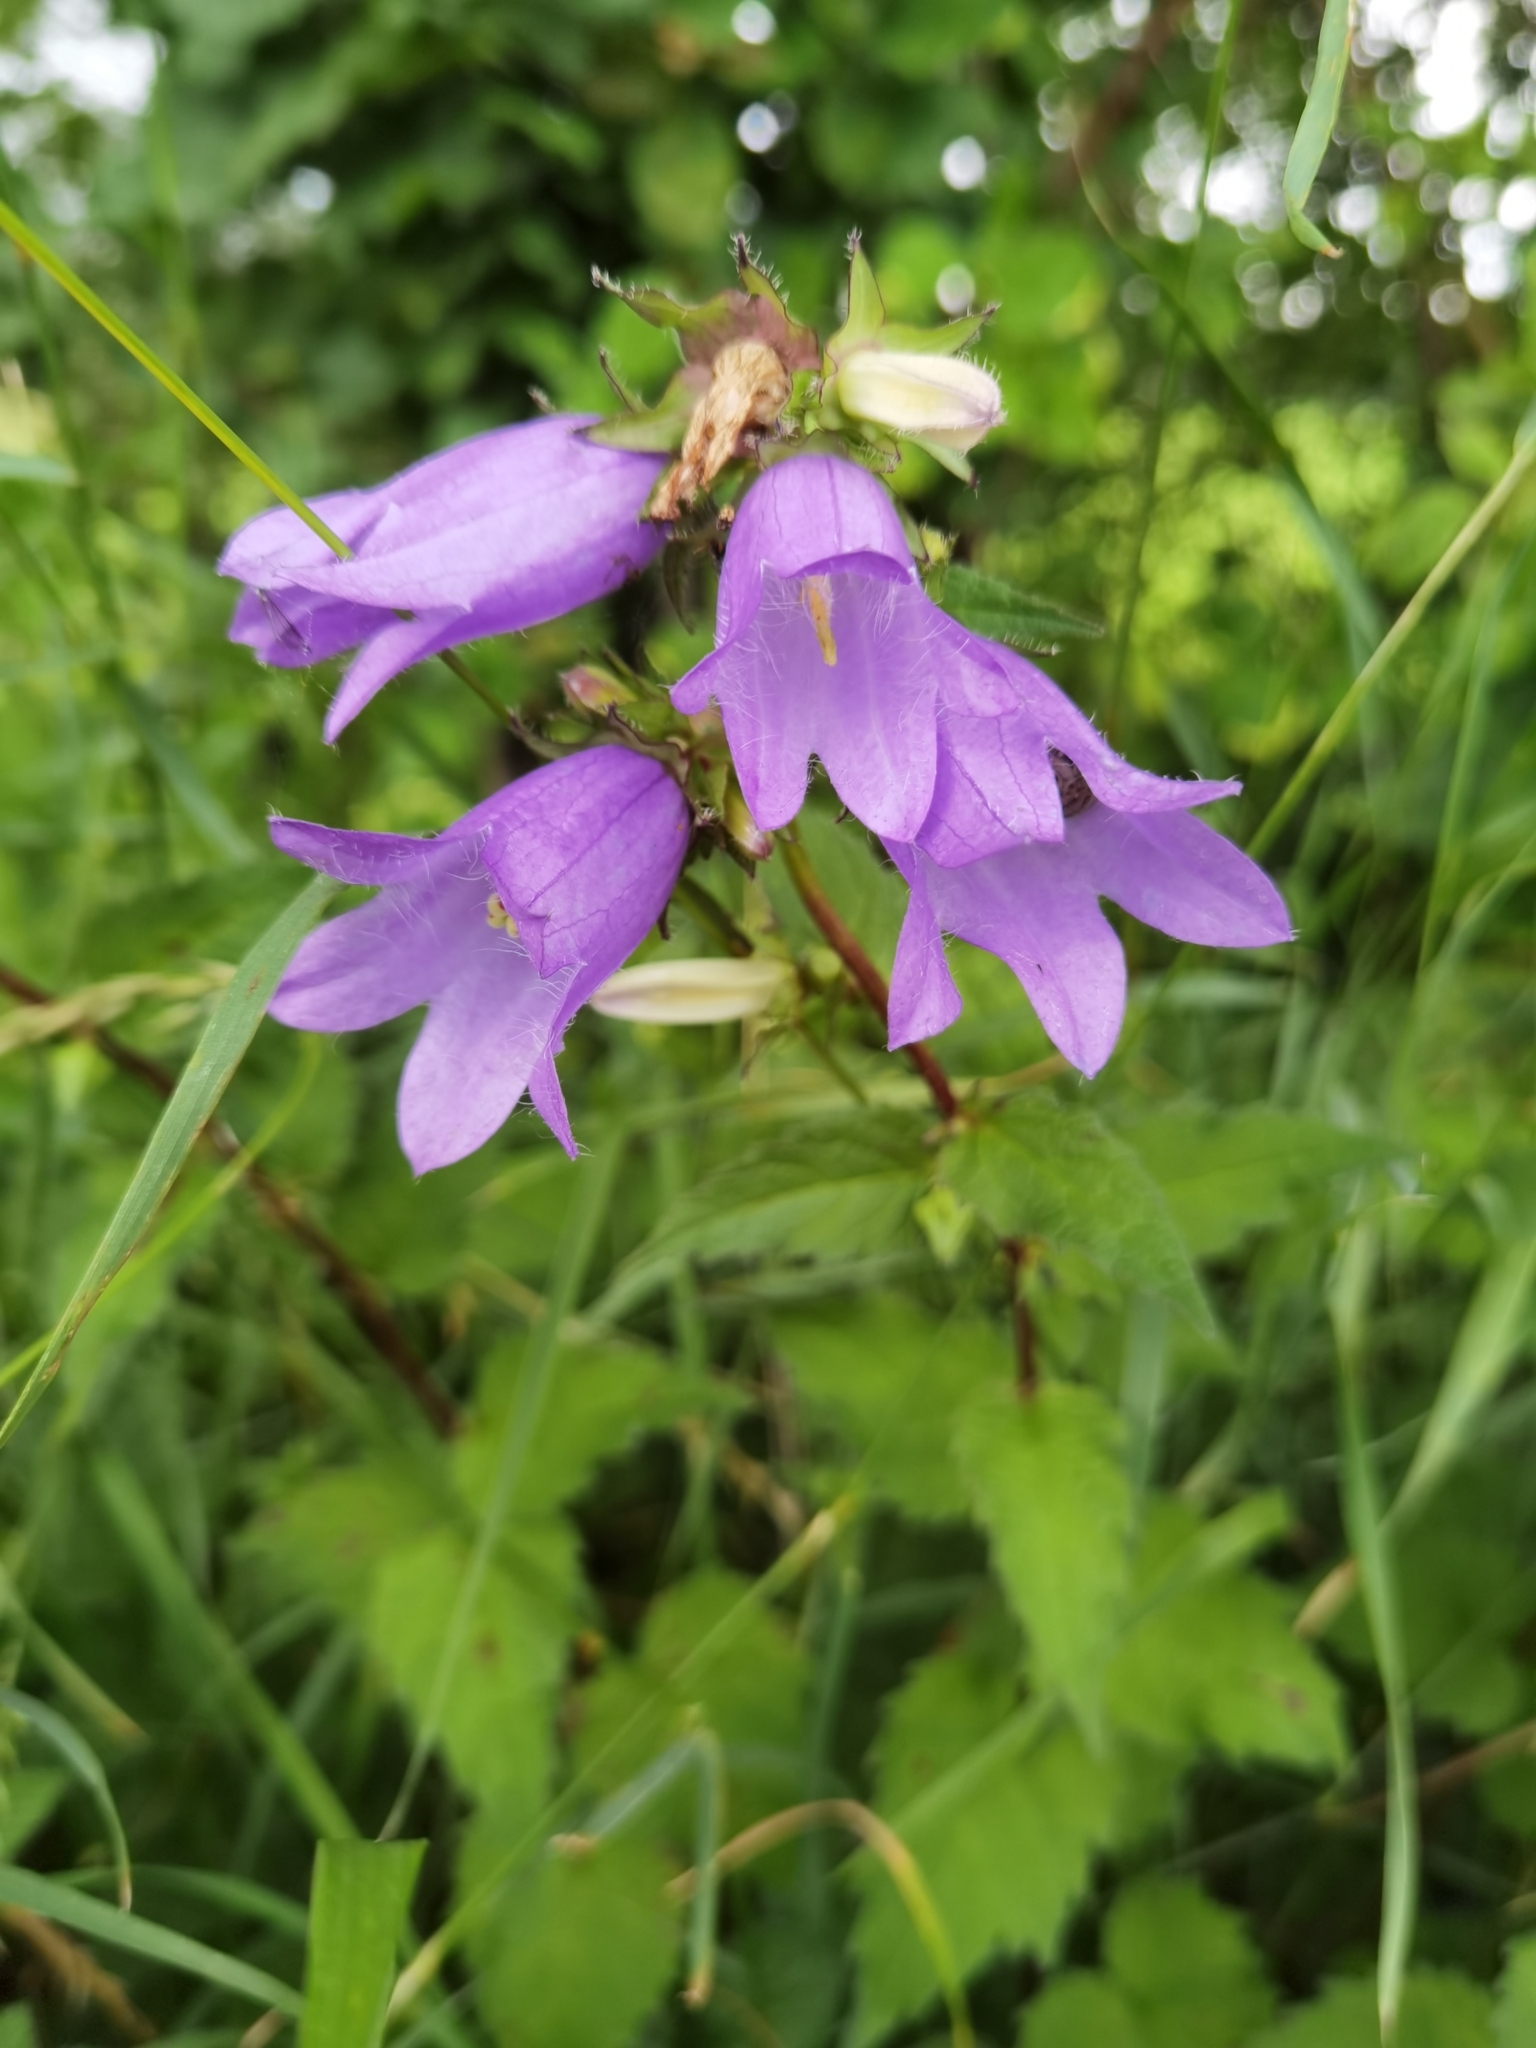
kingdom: Plantae
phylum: Tracheophyta
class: Magnoliopsida
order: Asterales
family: Campanulaceae
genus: Campanula
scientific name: Campanula trachelium
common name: Nettle-leaved bellflower
